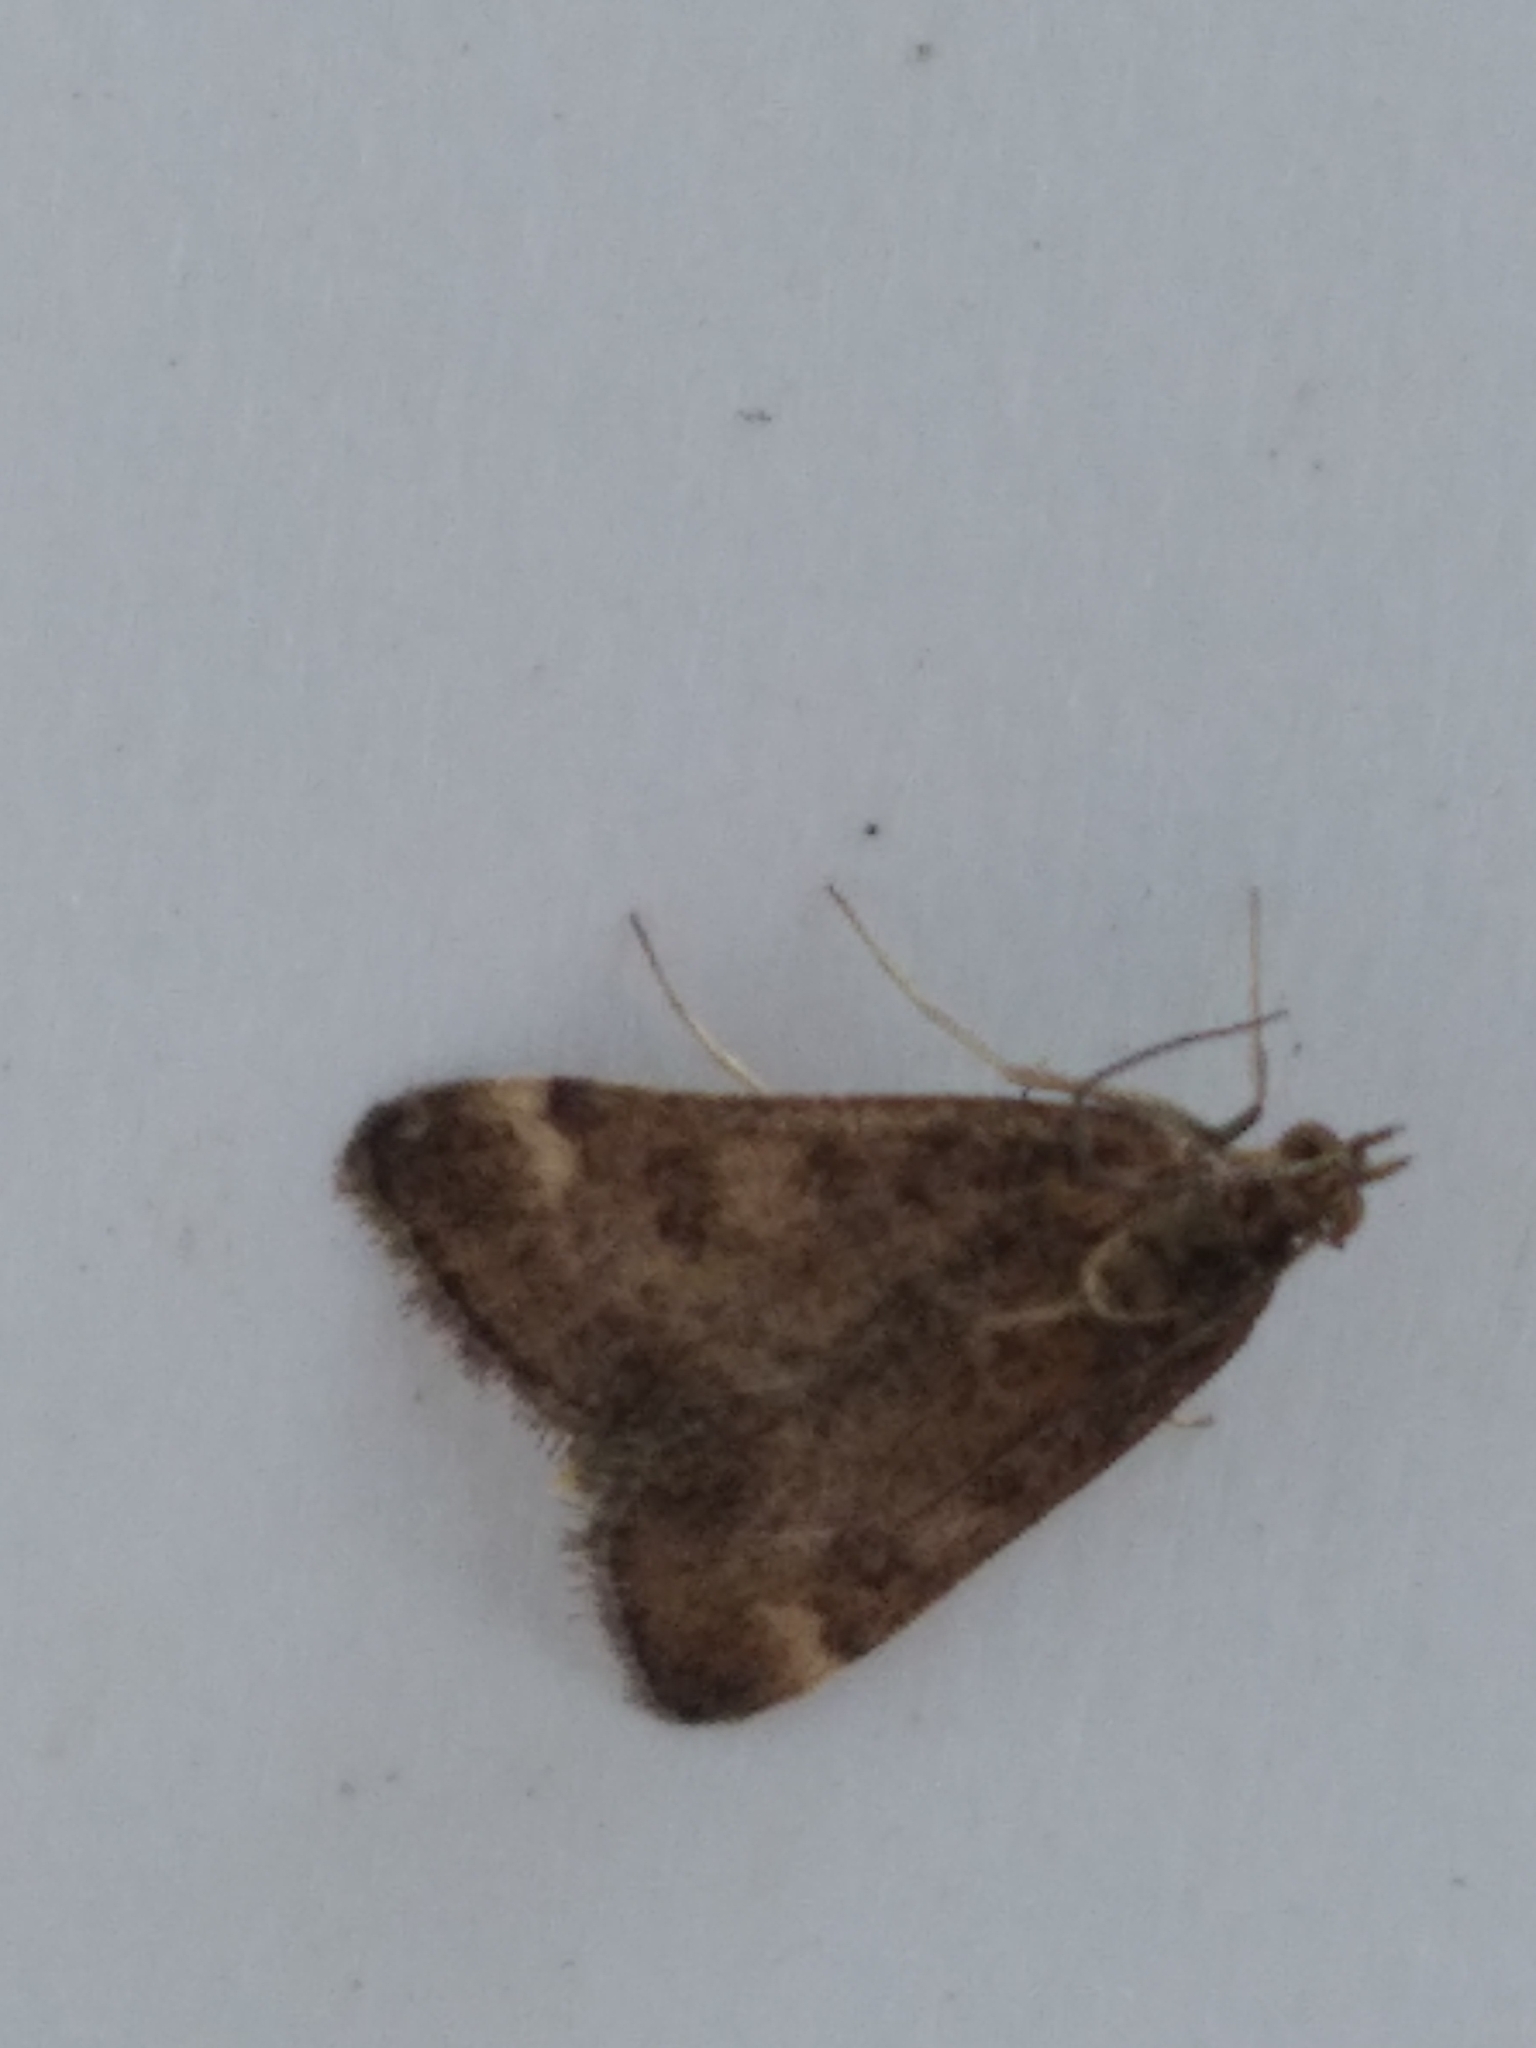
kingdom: Animalia
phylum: Arthropoda
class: Insecta
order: Lepidoptera
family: Crambidae
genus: Pyrausta
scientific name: Pyrausta despicata
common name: Straw-barred pearl
